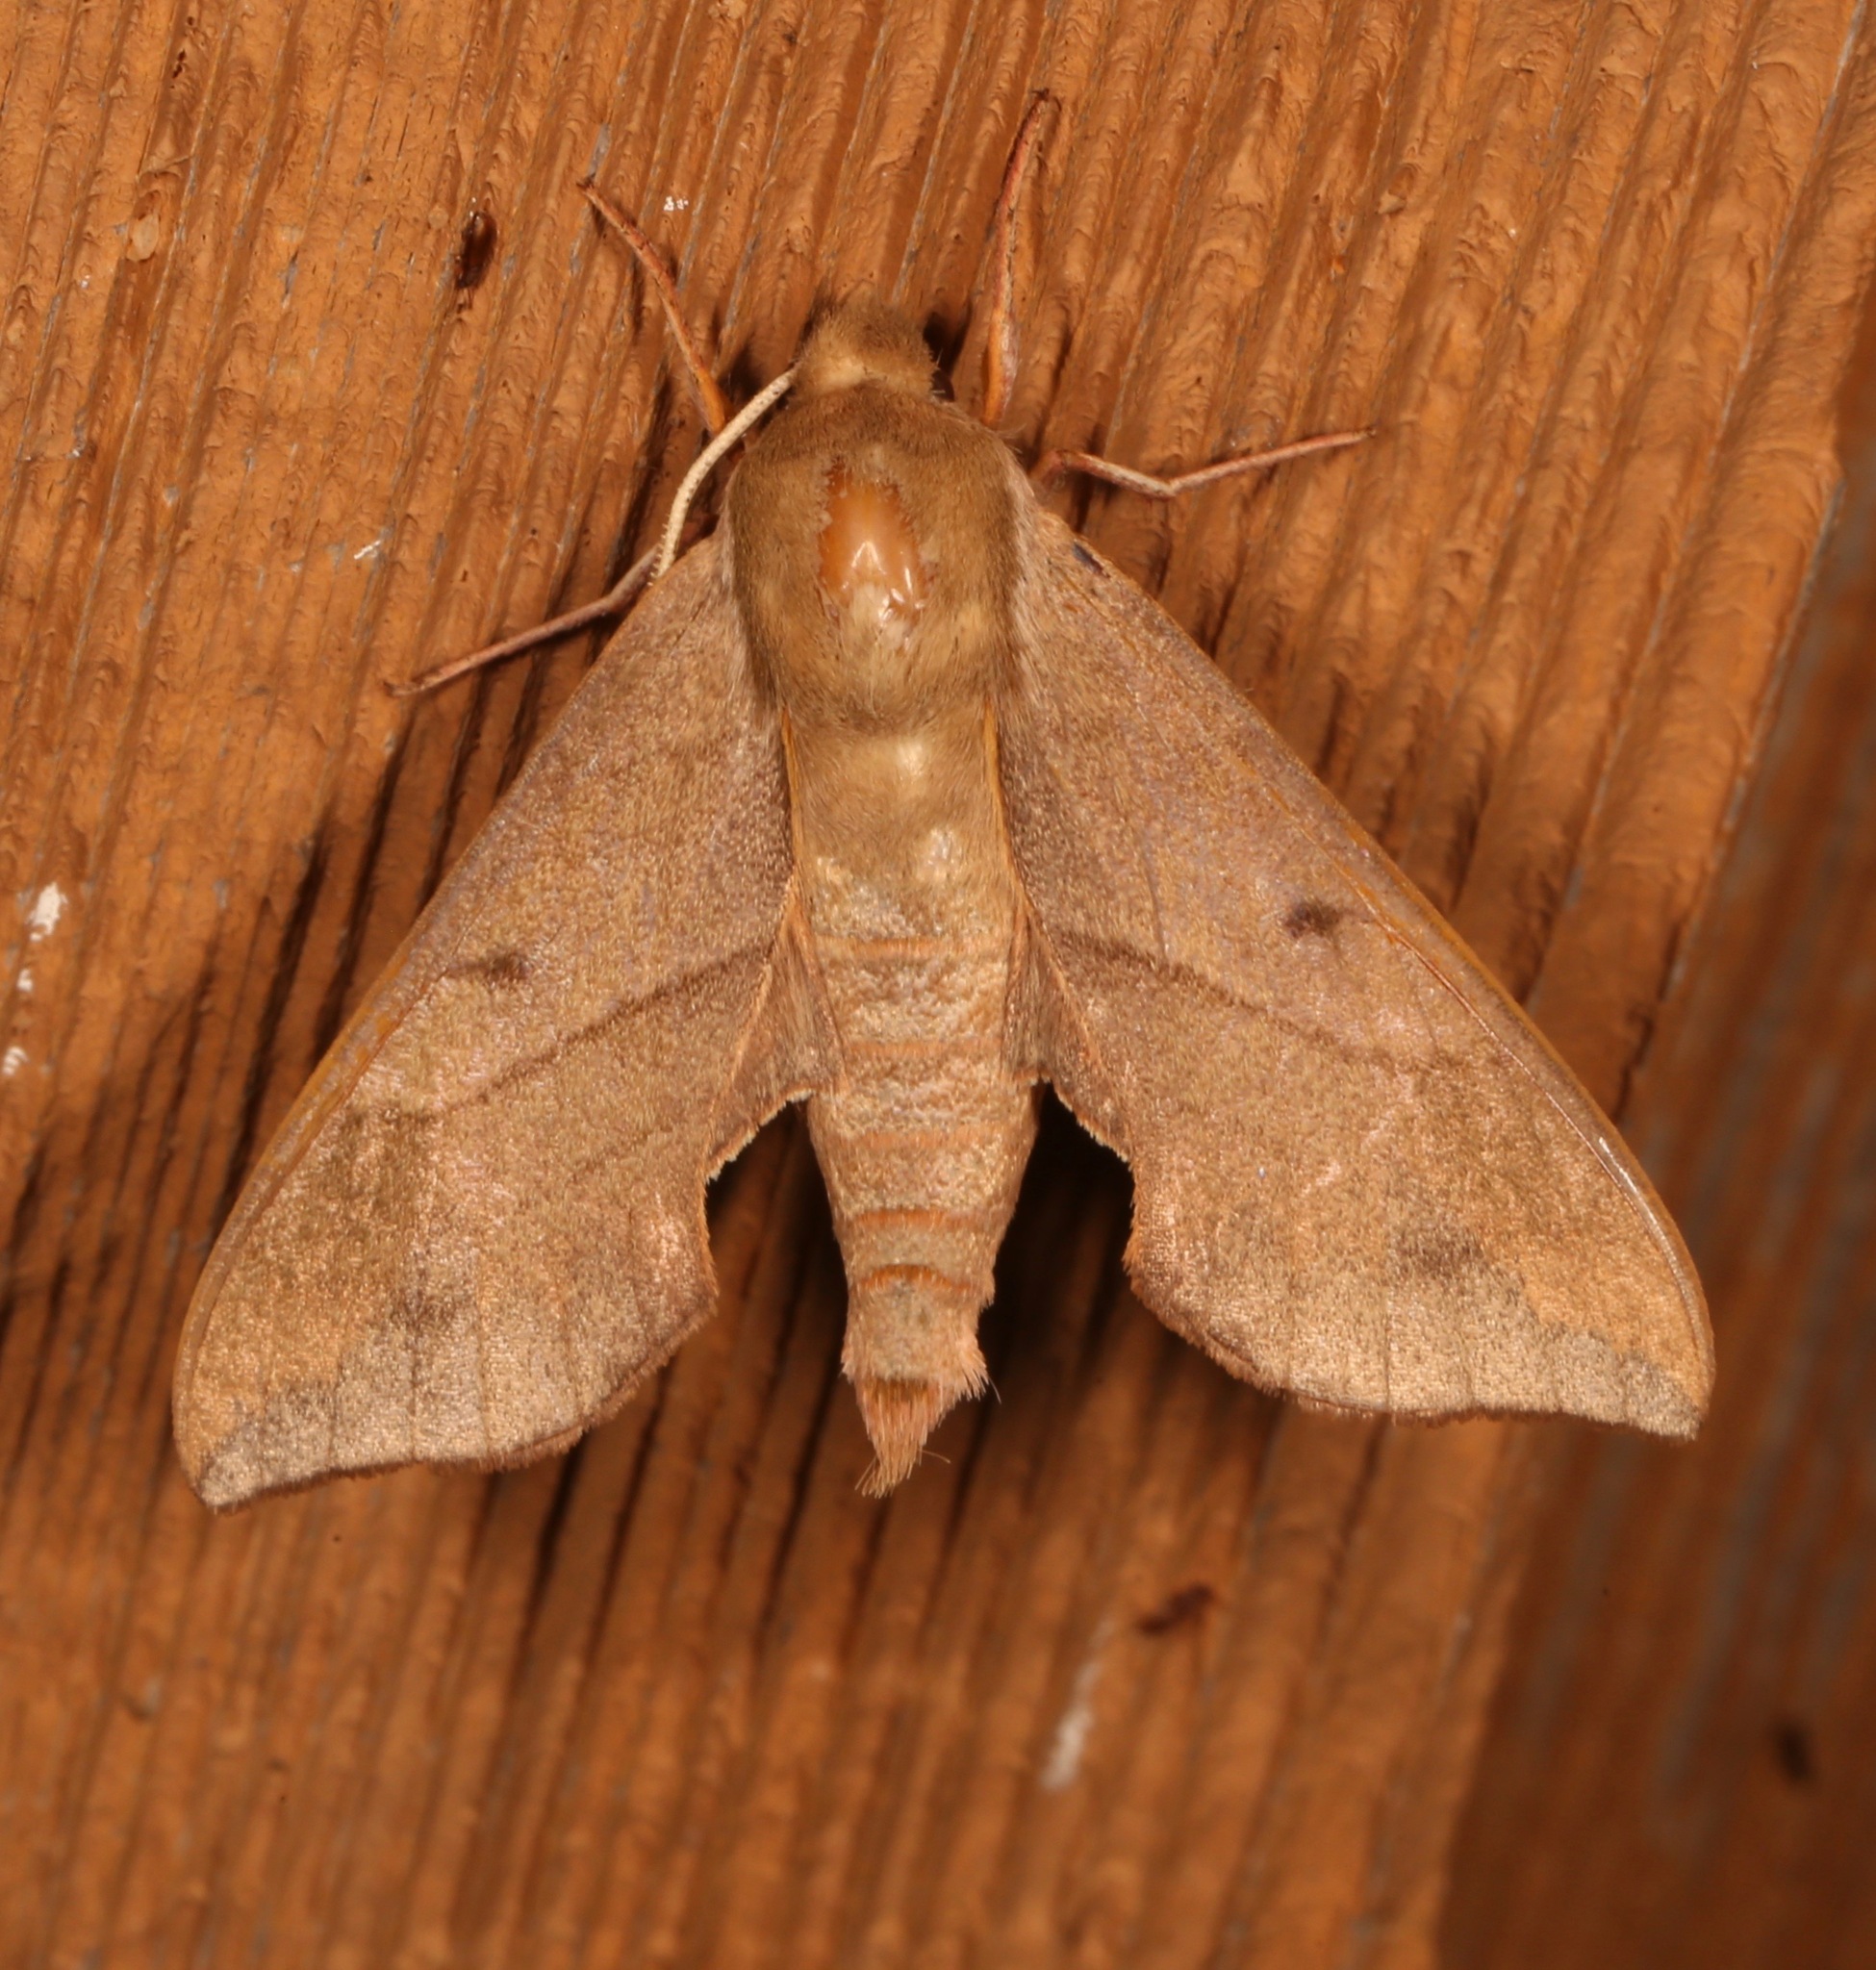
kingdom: Animalia
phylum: Arthropoda
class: Insecta
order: Lepidoptera
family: Sphingidae
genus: Darapsa
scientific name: Darapsa myron
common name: Hog sphinx
